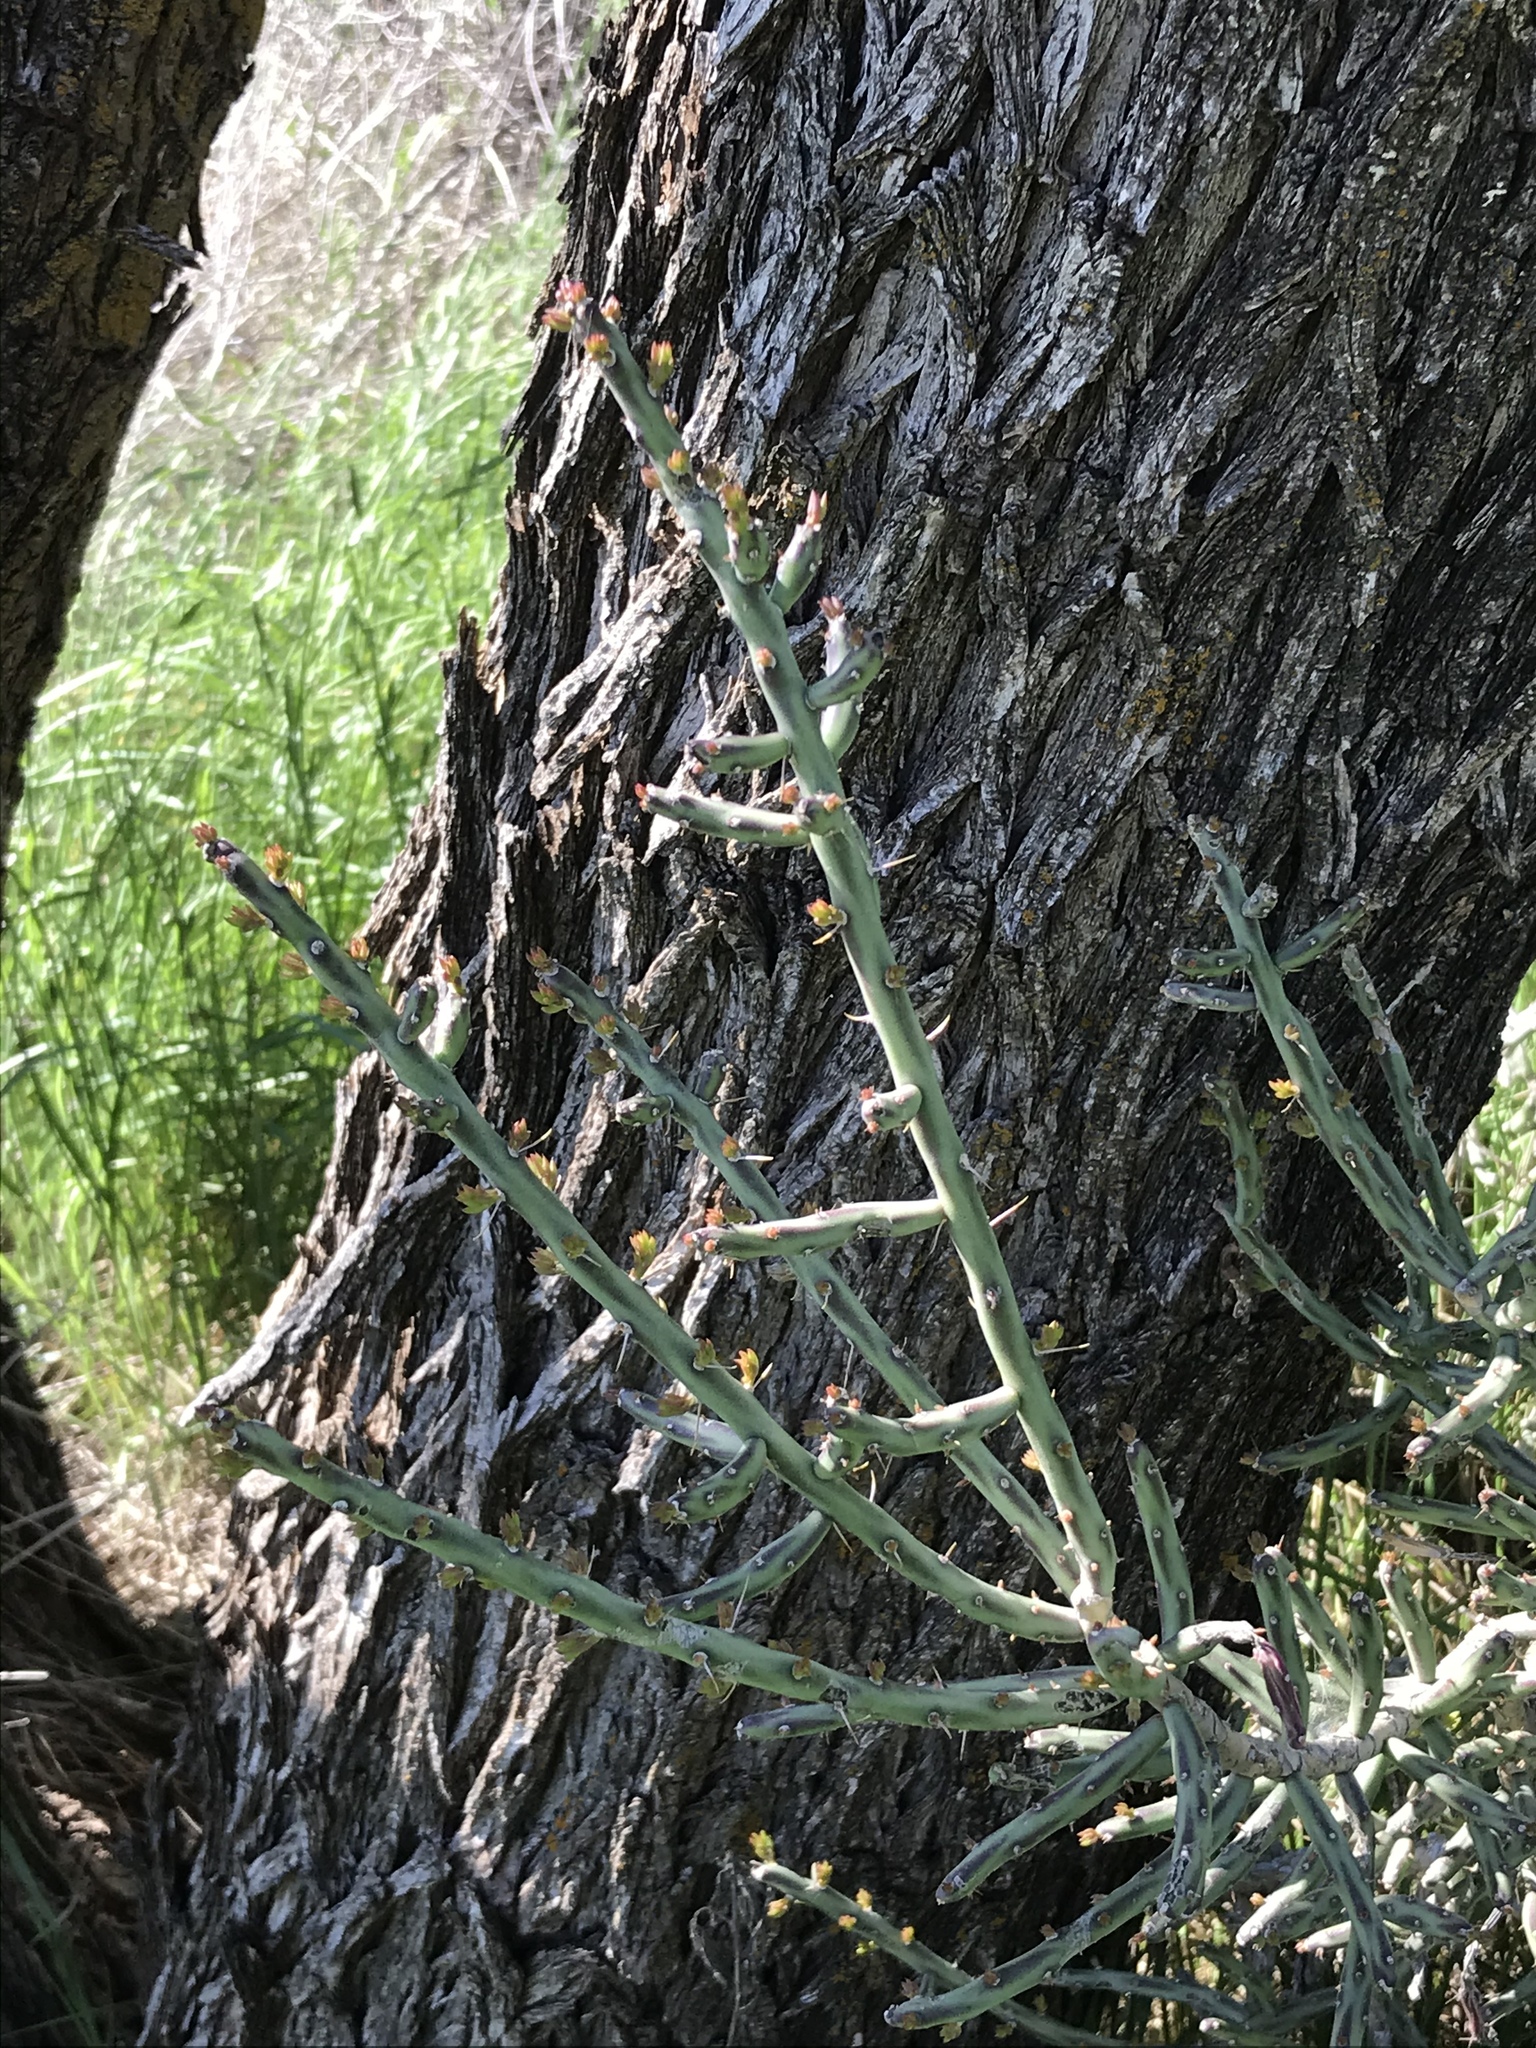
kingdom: Plantae
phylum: Tracheophyta
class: Magnoliopsida
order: Caryophyllales
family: Cactaceae
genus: Cylindropuntia
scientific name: Cylindropuntia leptocaulis
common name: Christmas cactus
